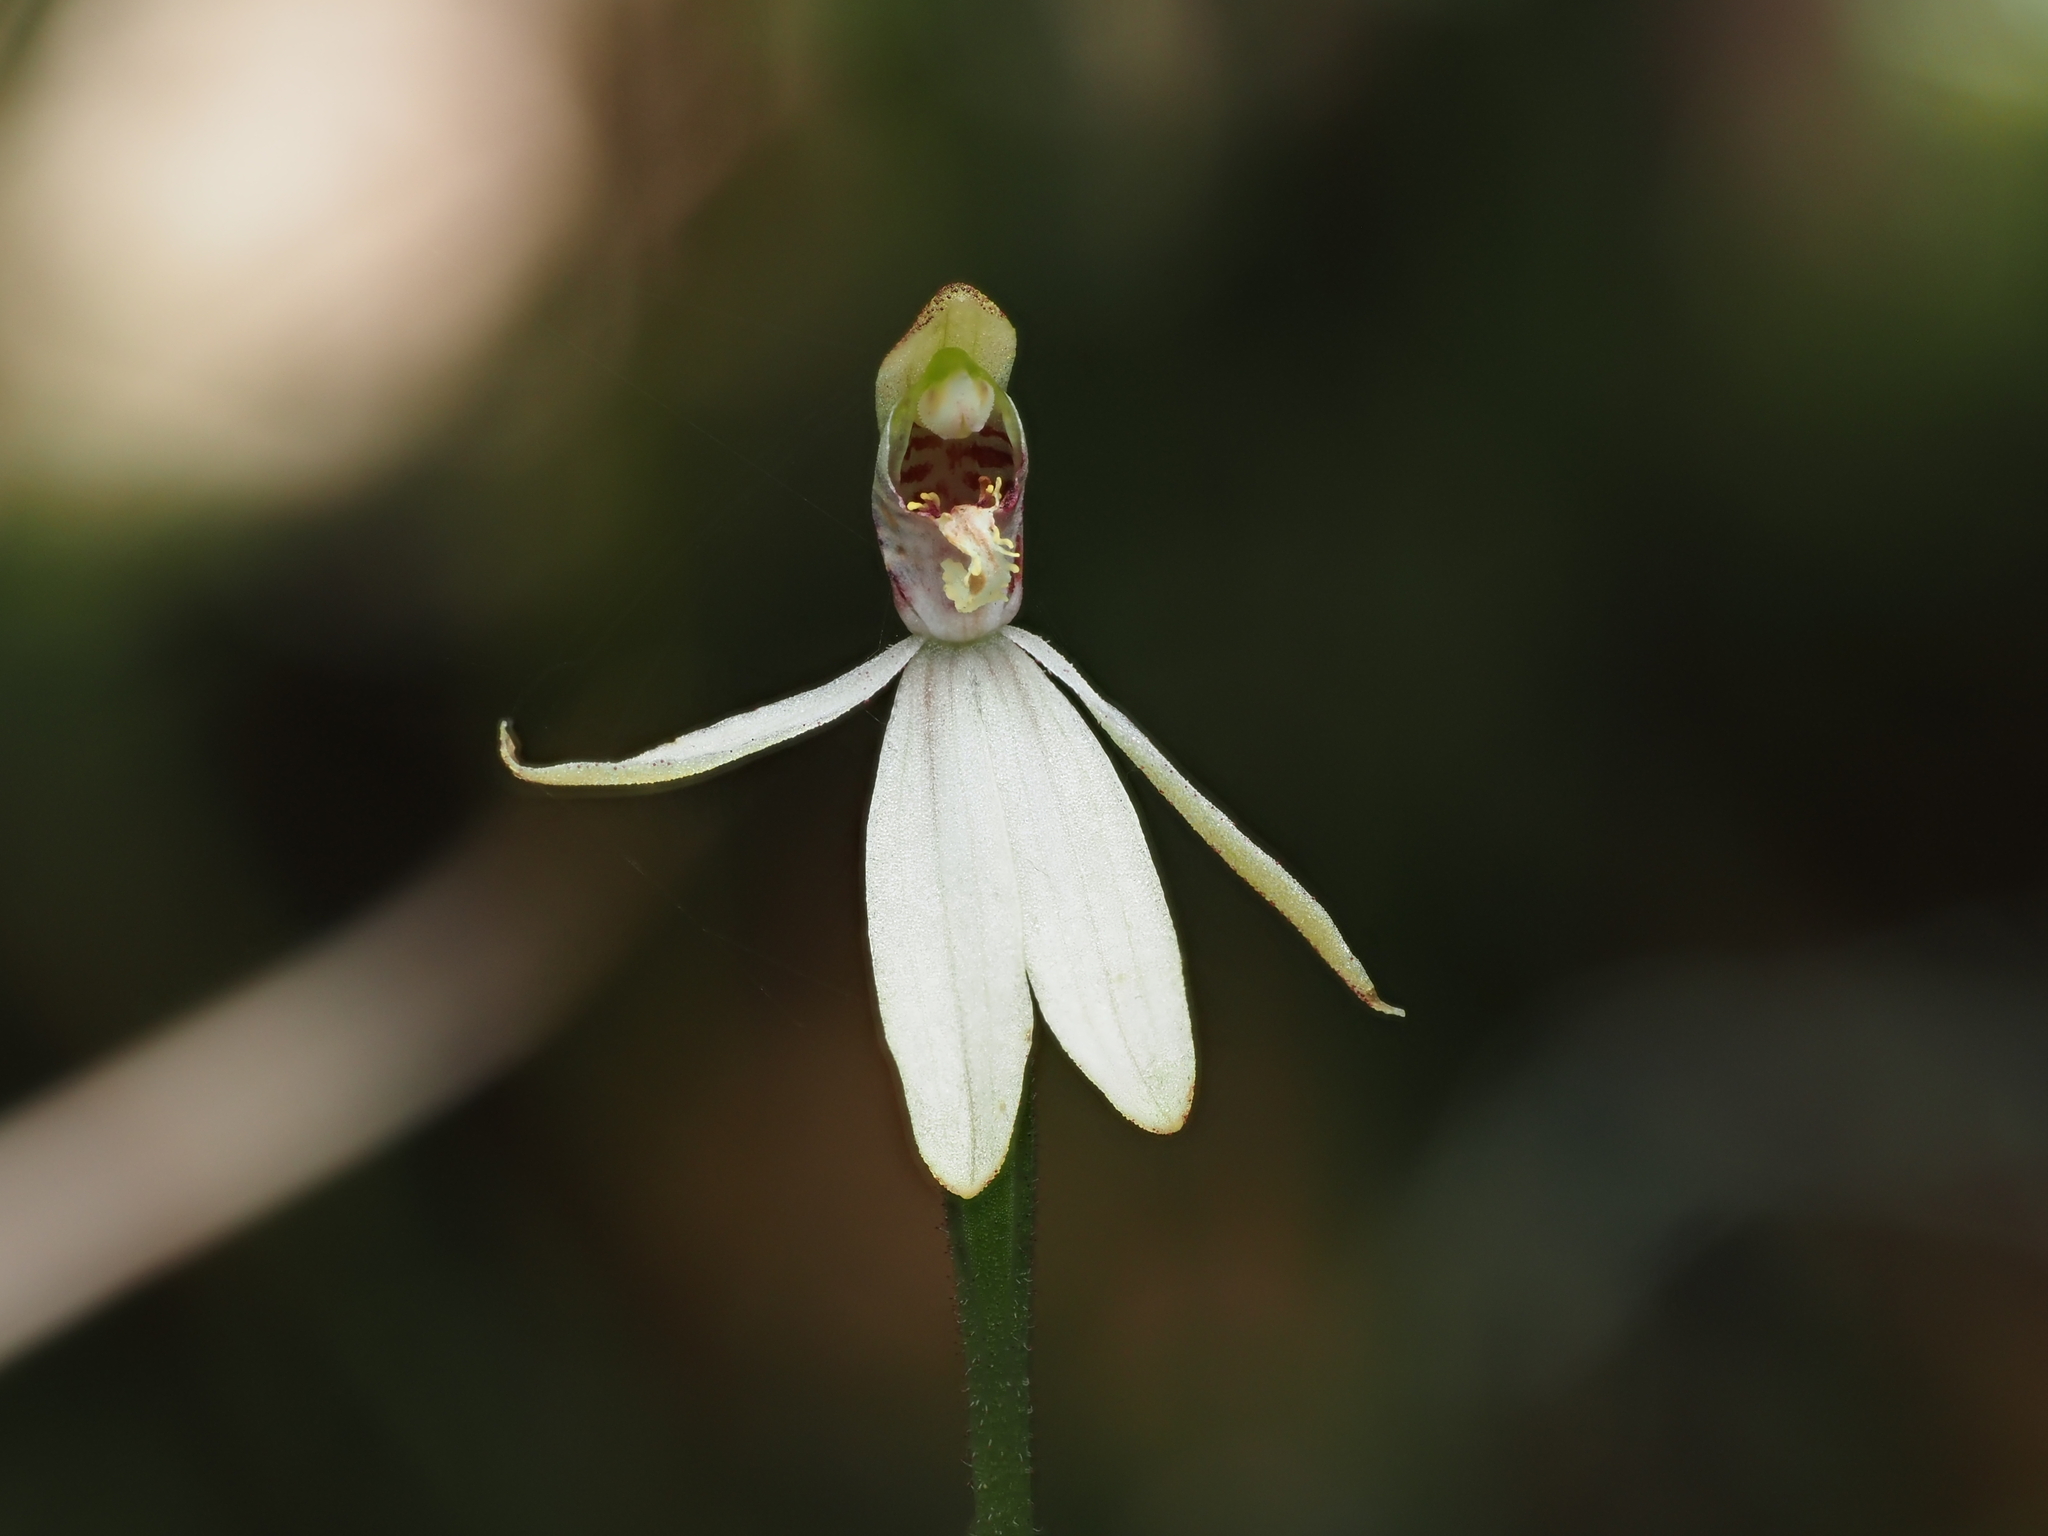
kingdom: Plantae
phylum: Tracheophyta
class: Liliopsida
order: Asparagales
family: Orchidaceae
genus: Caladenia
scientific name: Caladenia chlorostyla
